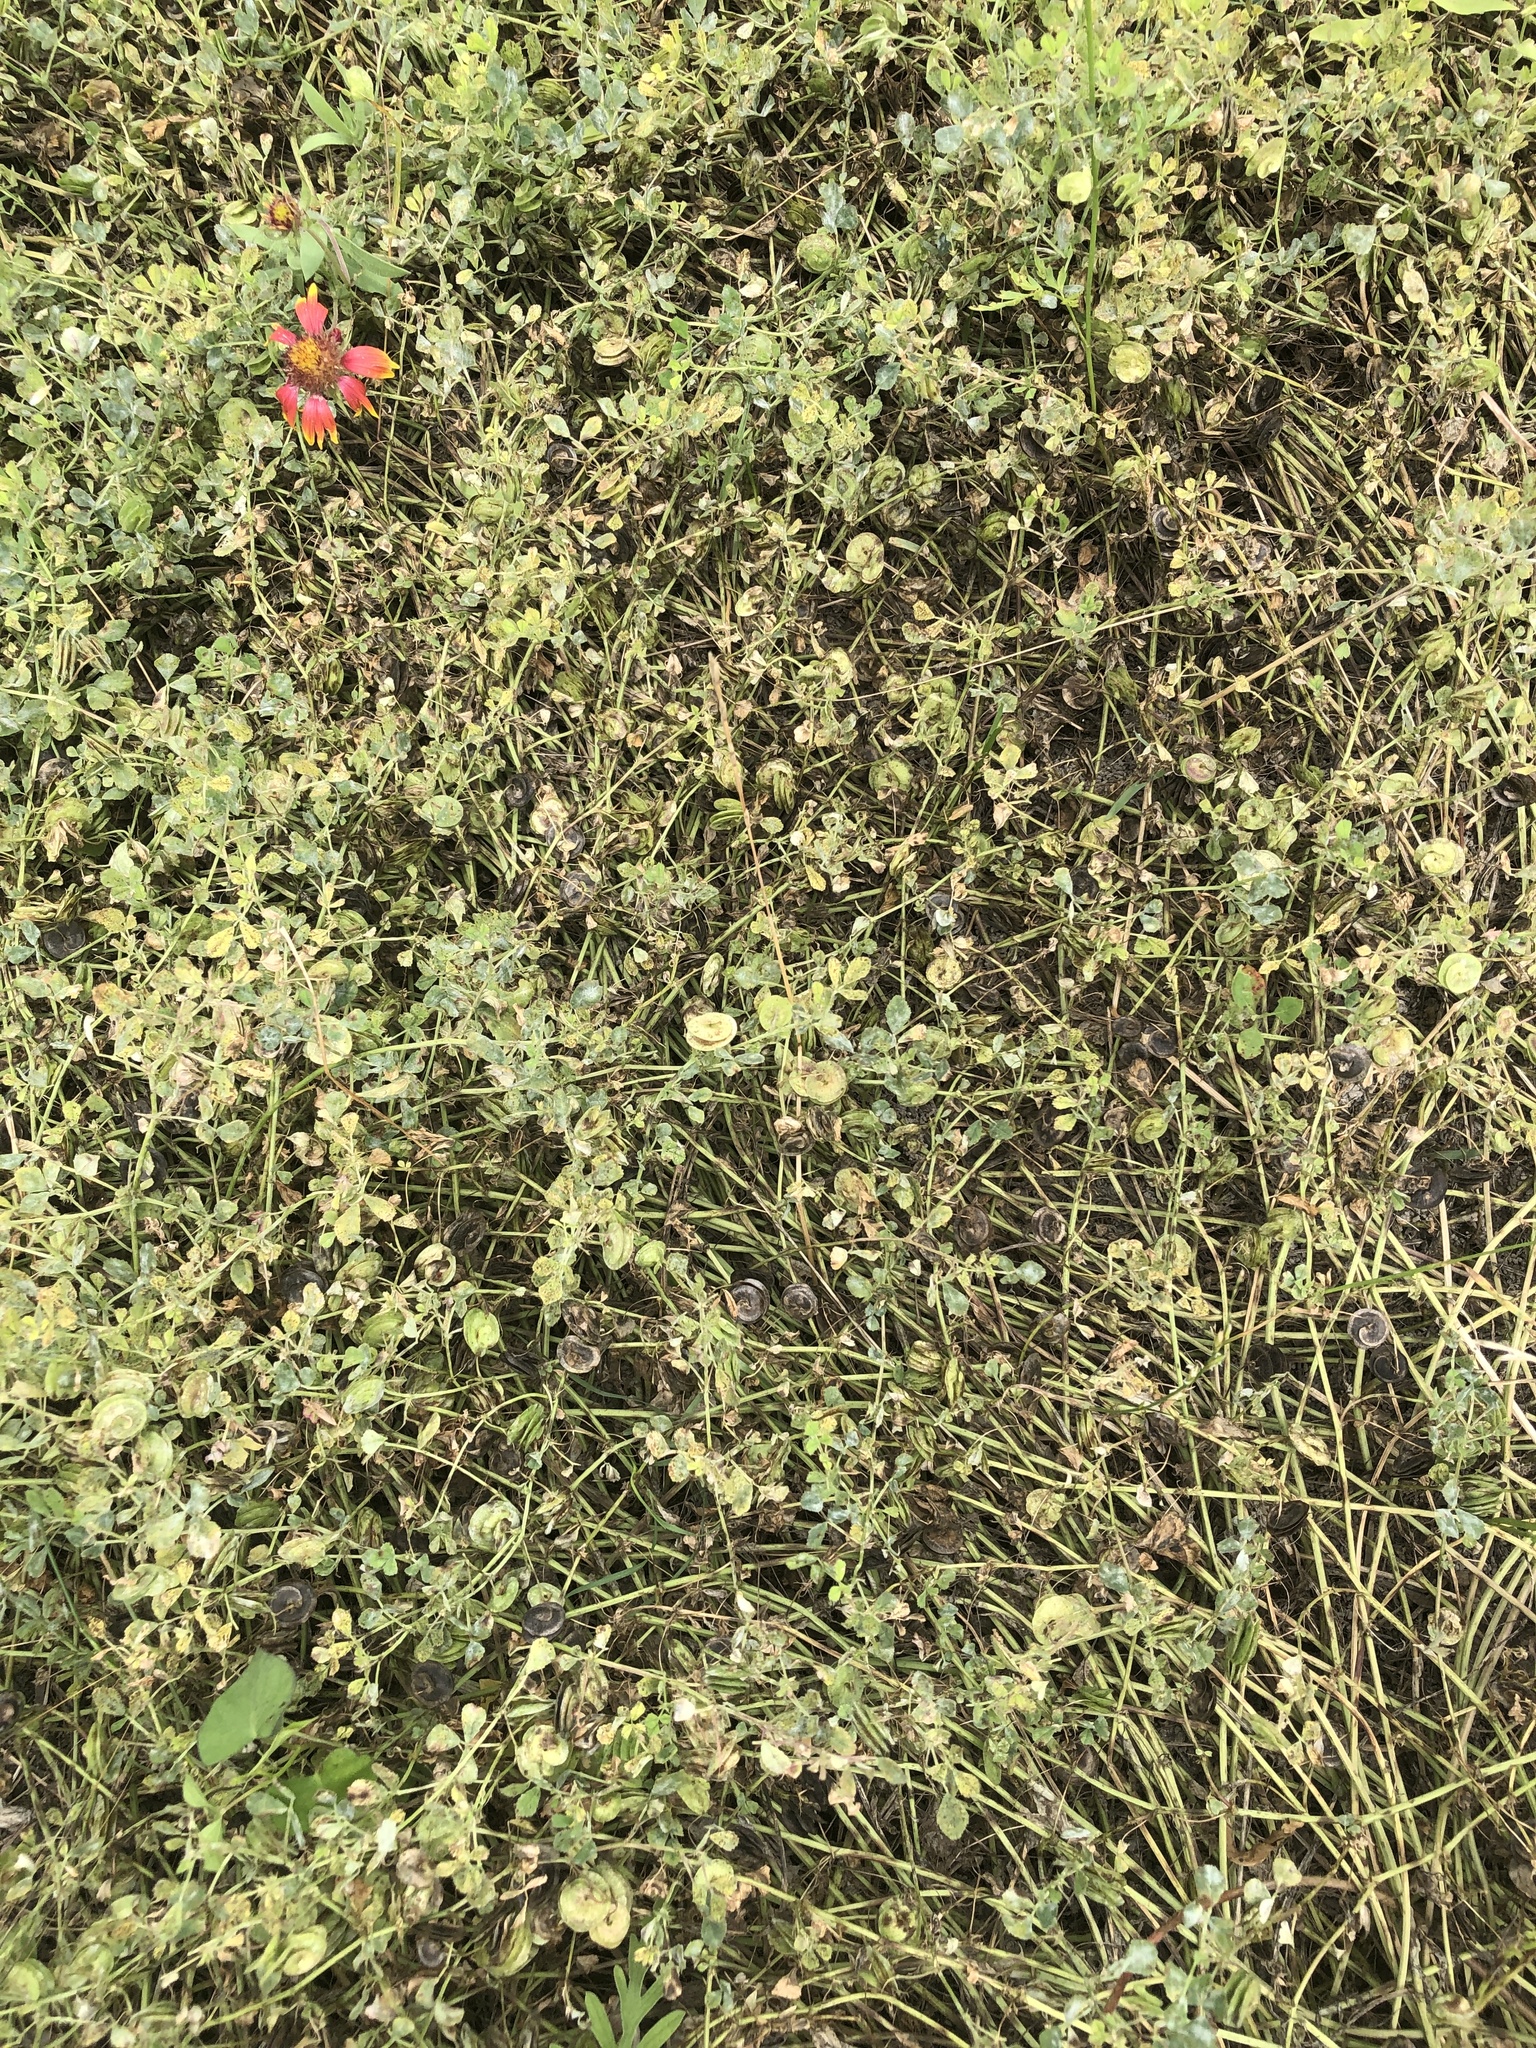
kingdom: Plantae
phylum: Tracheophyta
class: Magnoliopsida
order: Fabales
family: Fabaceae
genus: Medicago
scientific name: Medicago orbicularis
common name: Button medick
